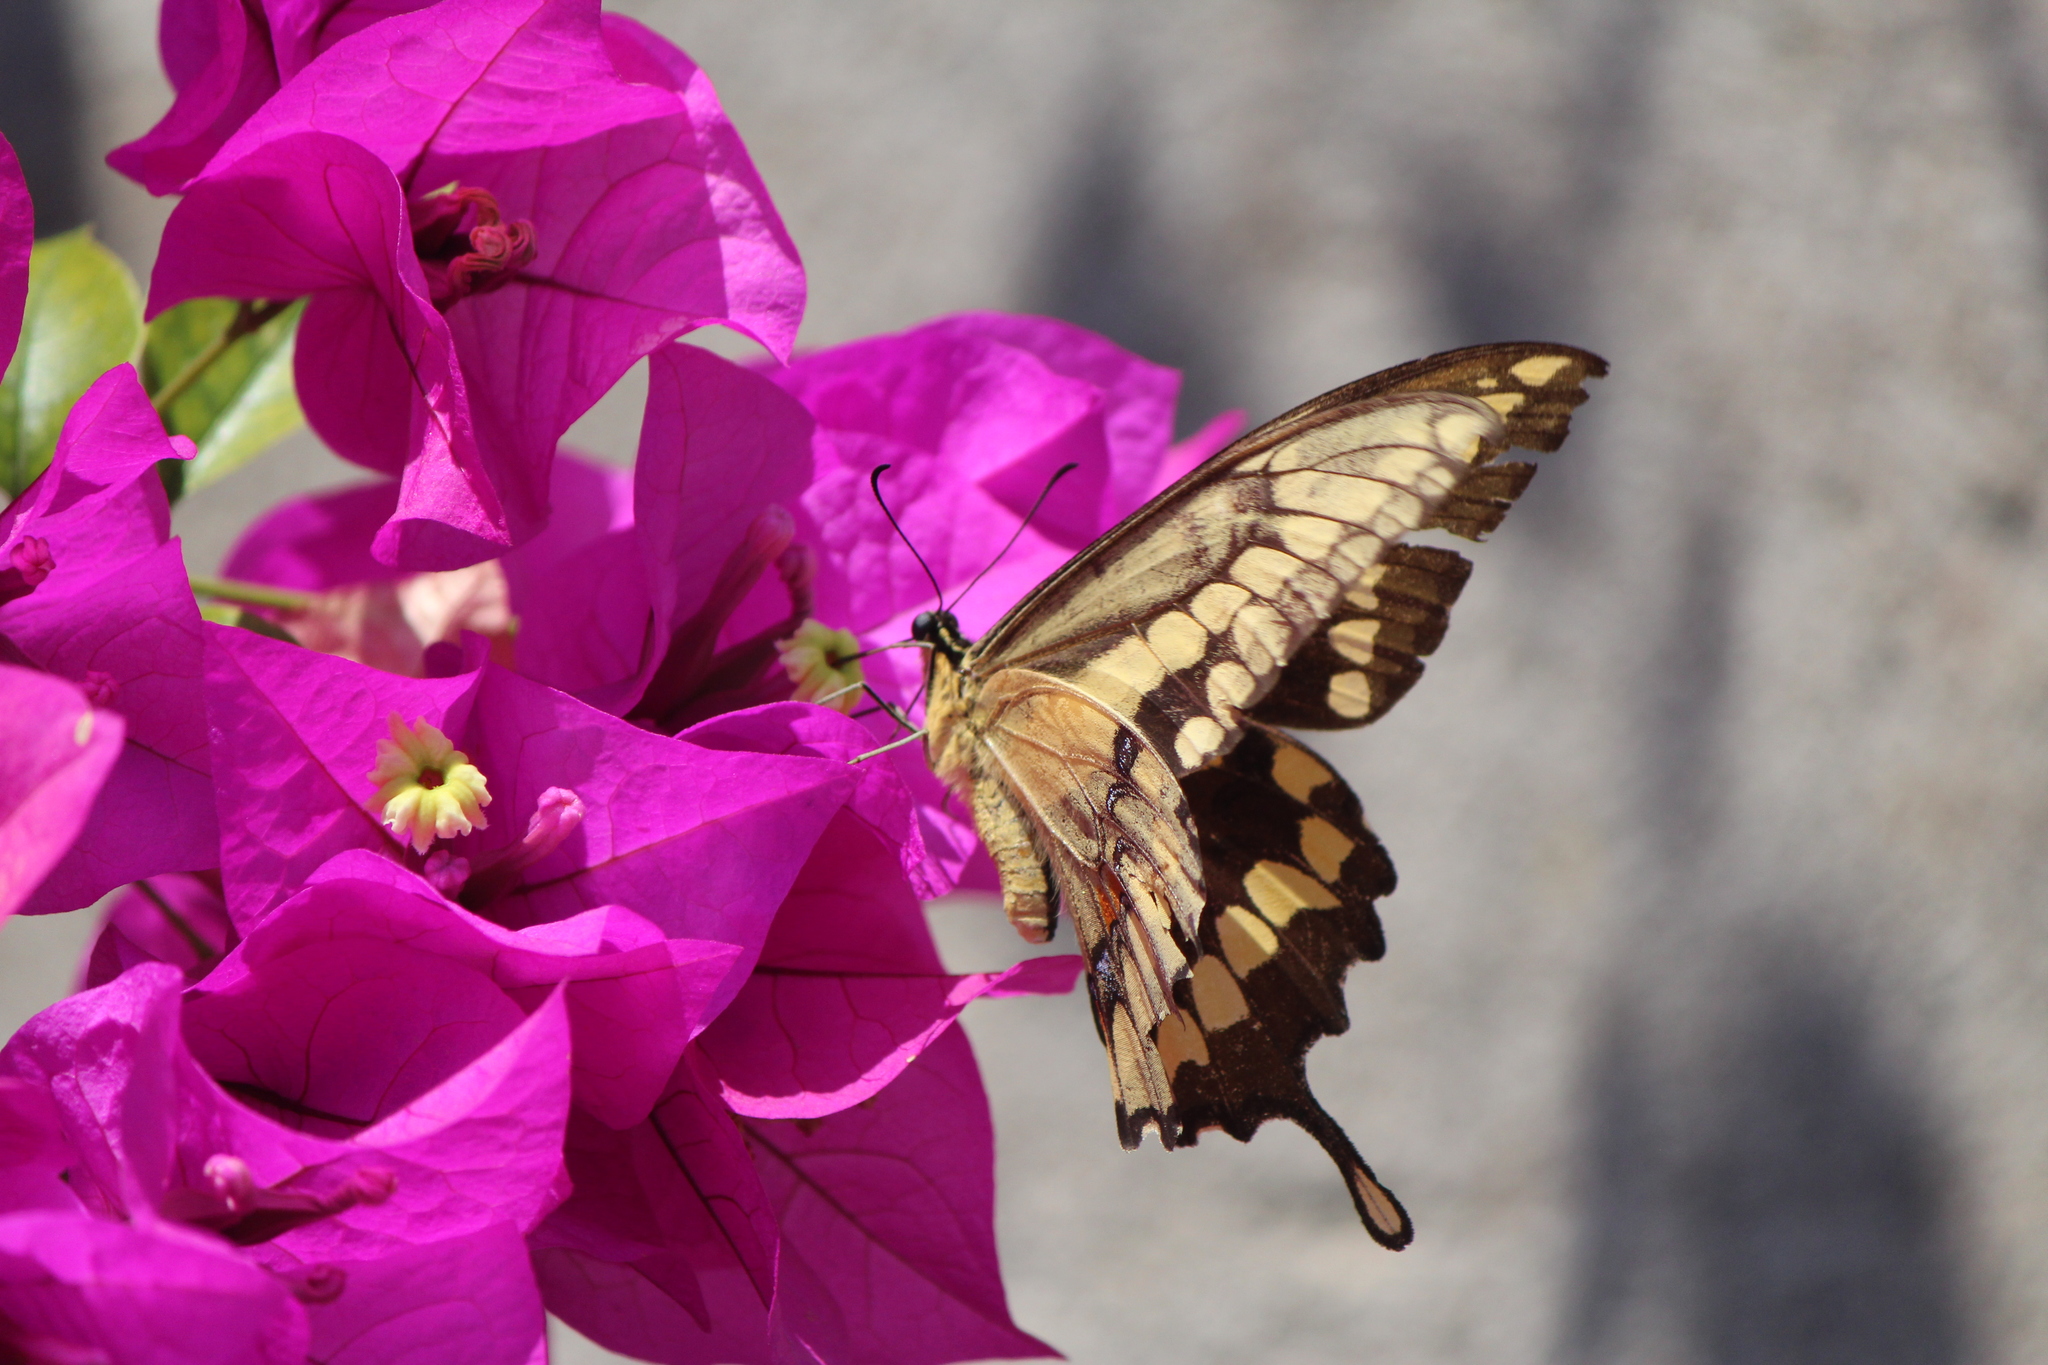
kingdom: Animalia
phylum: Arthropoda
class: Insecta
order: Lepidoptera
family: Papilionidae
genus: Papilio
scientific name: Papilio rumiko
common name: Western giant swallowtail
